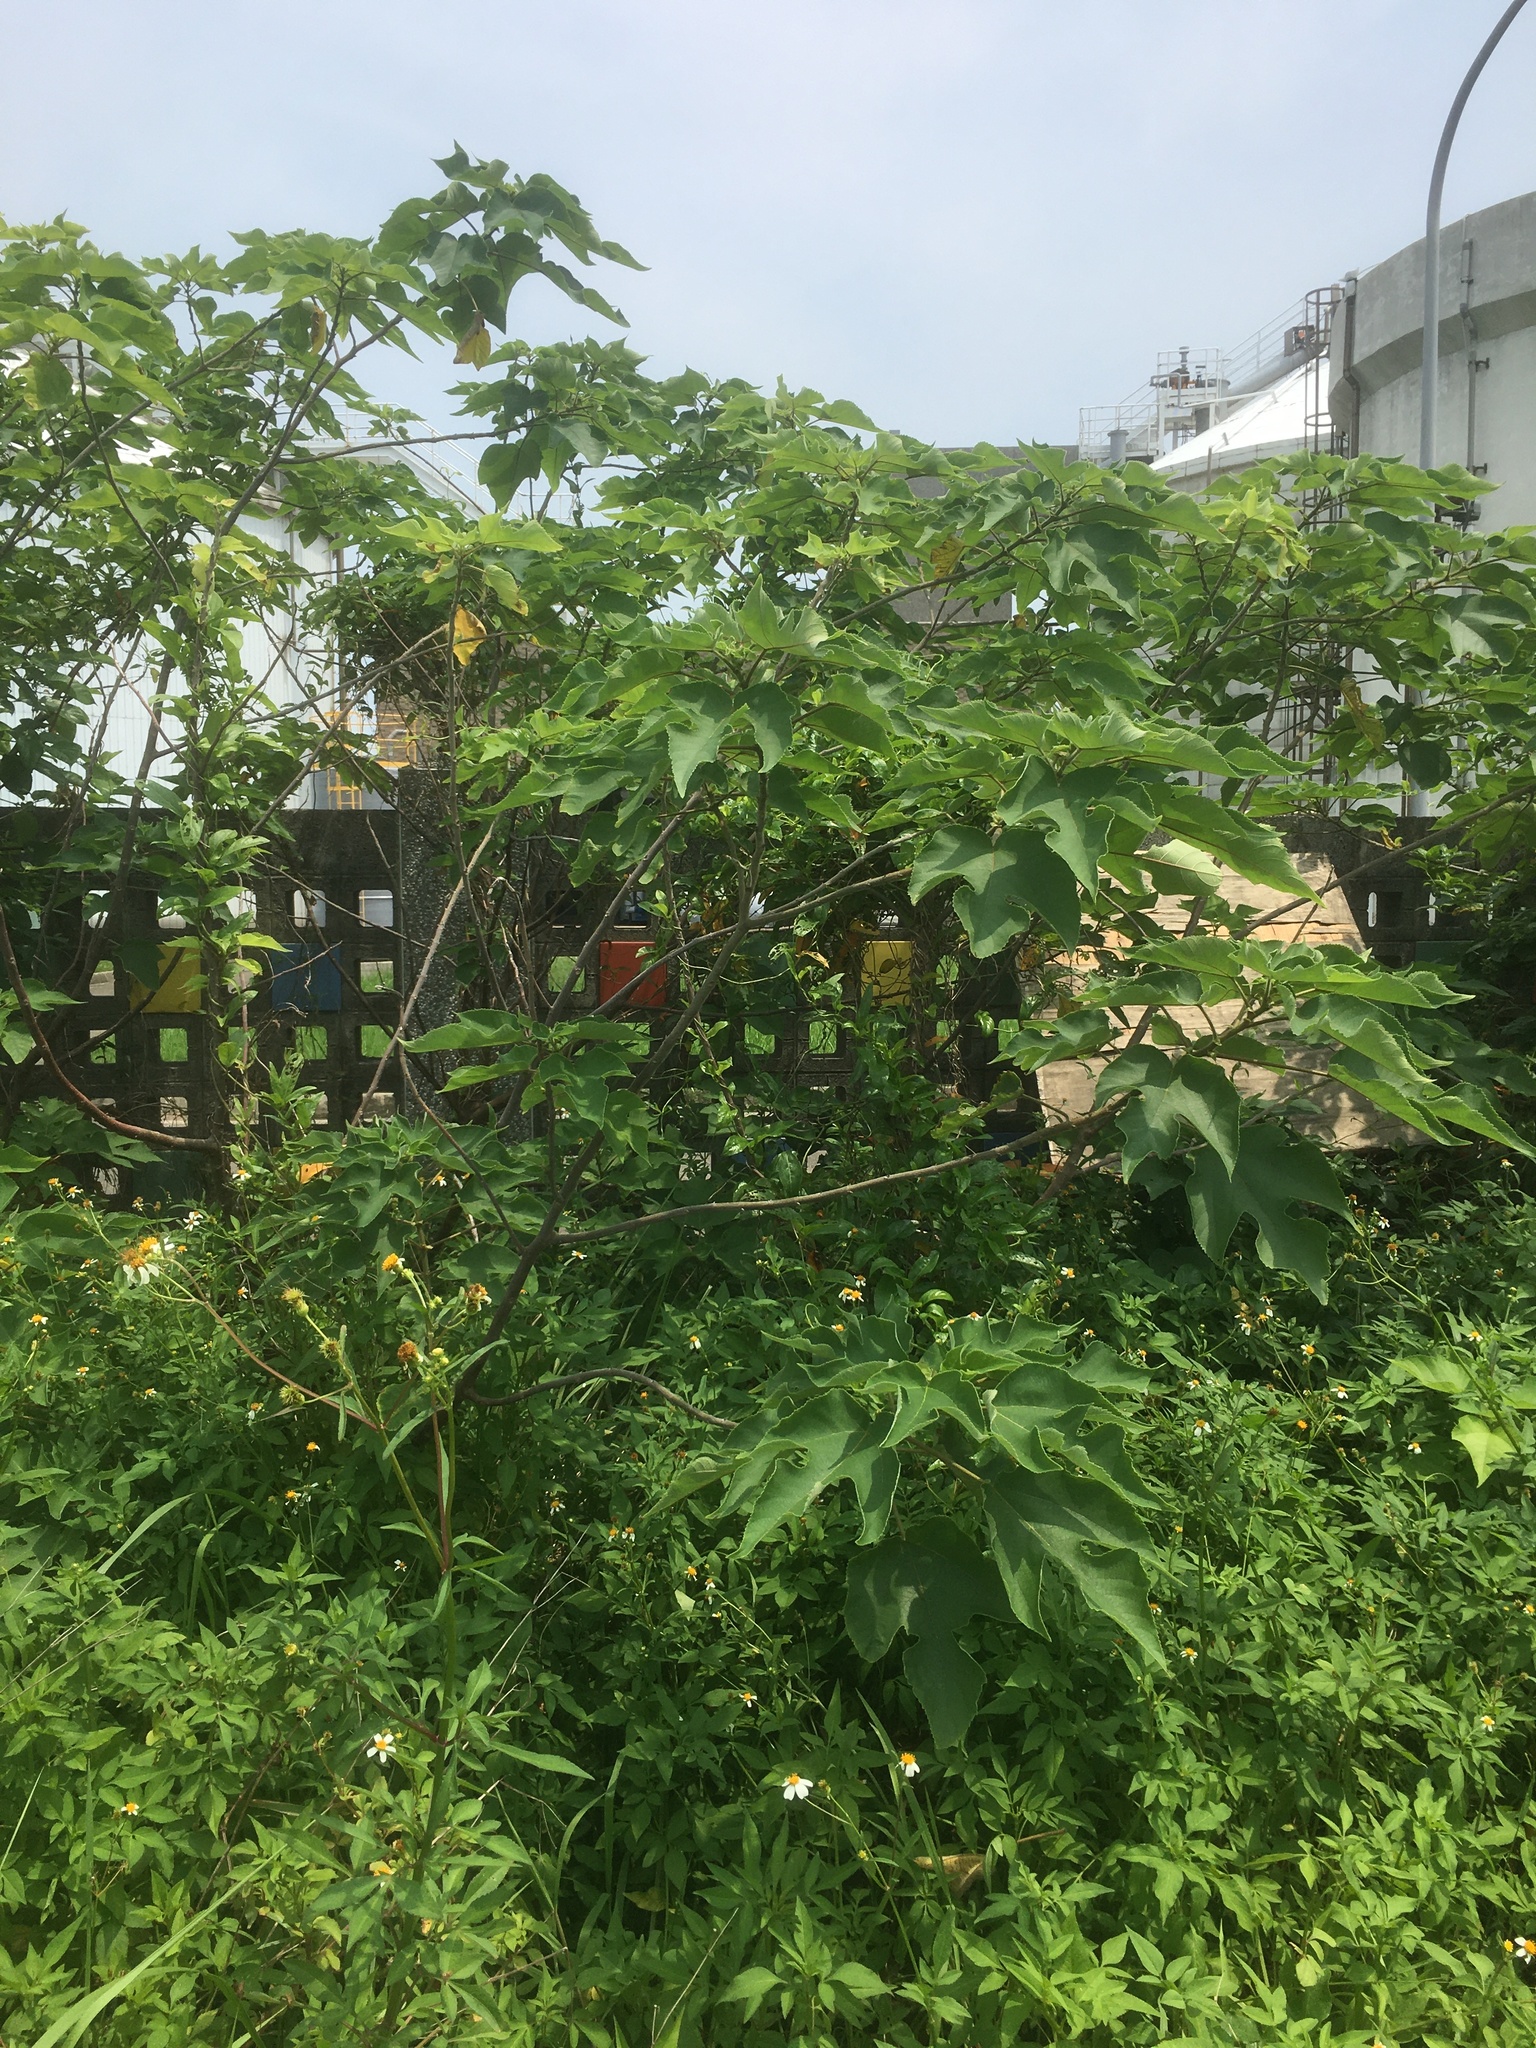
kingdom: Plantae
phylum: Tracheophyta
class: Magnoliopsida
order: Rosales
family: Moraceae
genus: Broussonetia
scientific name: Broussonetia papyrifera
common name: Paper mulberry
